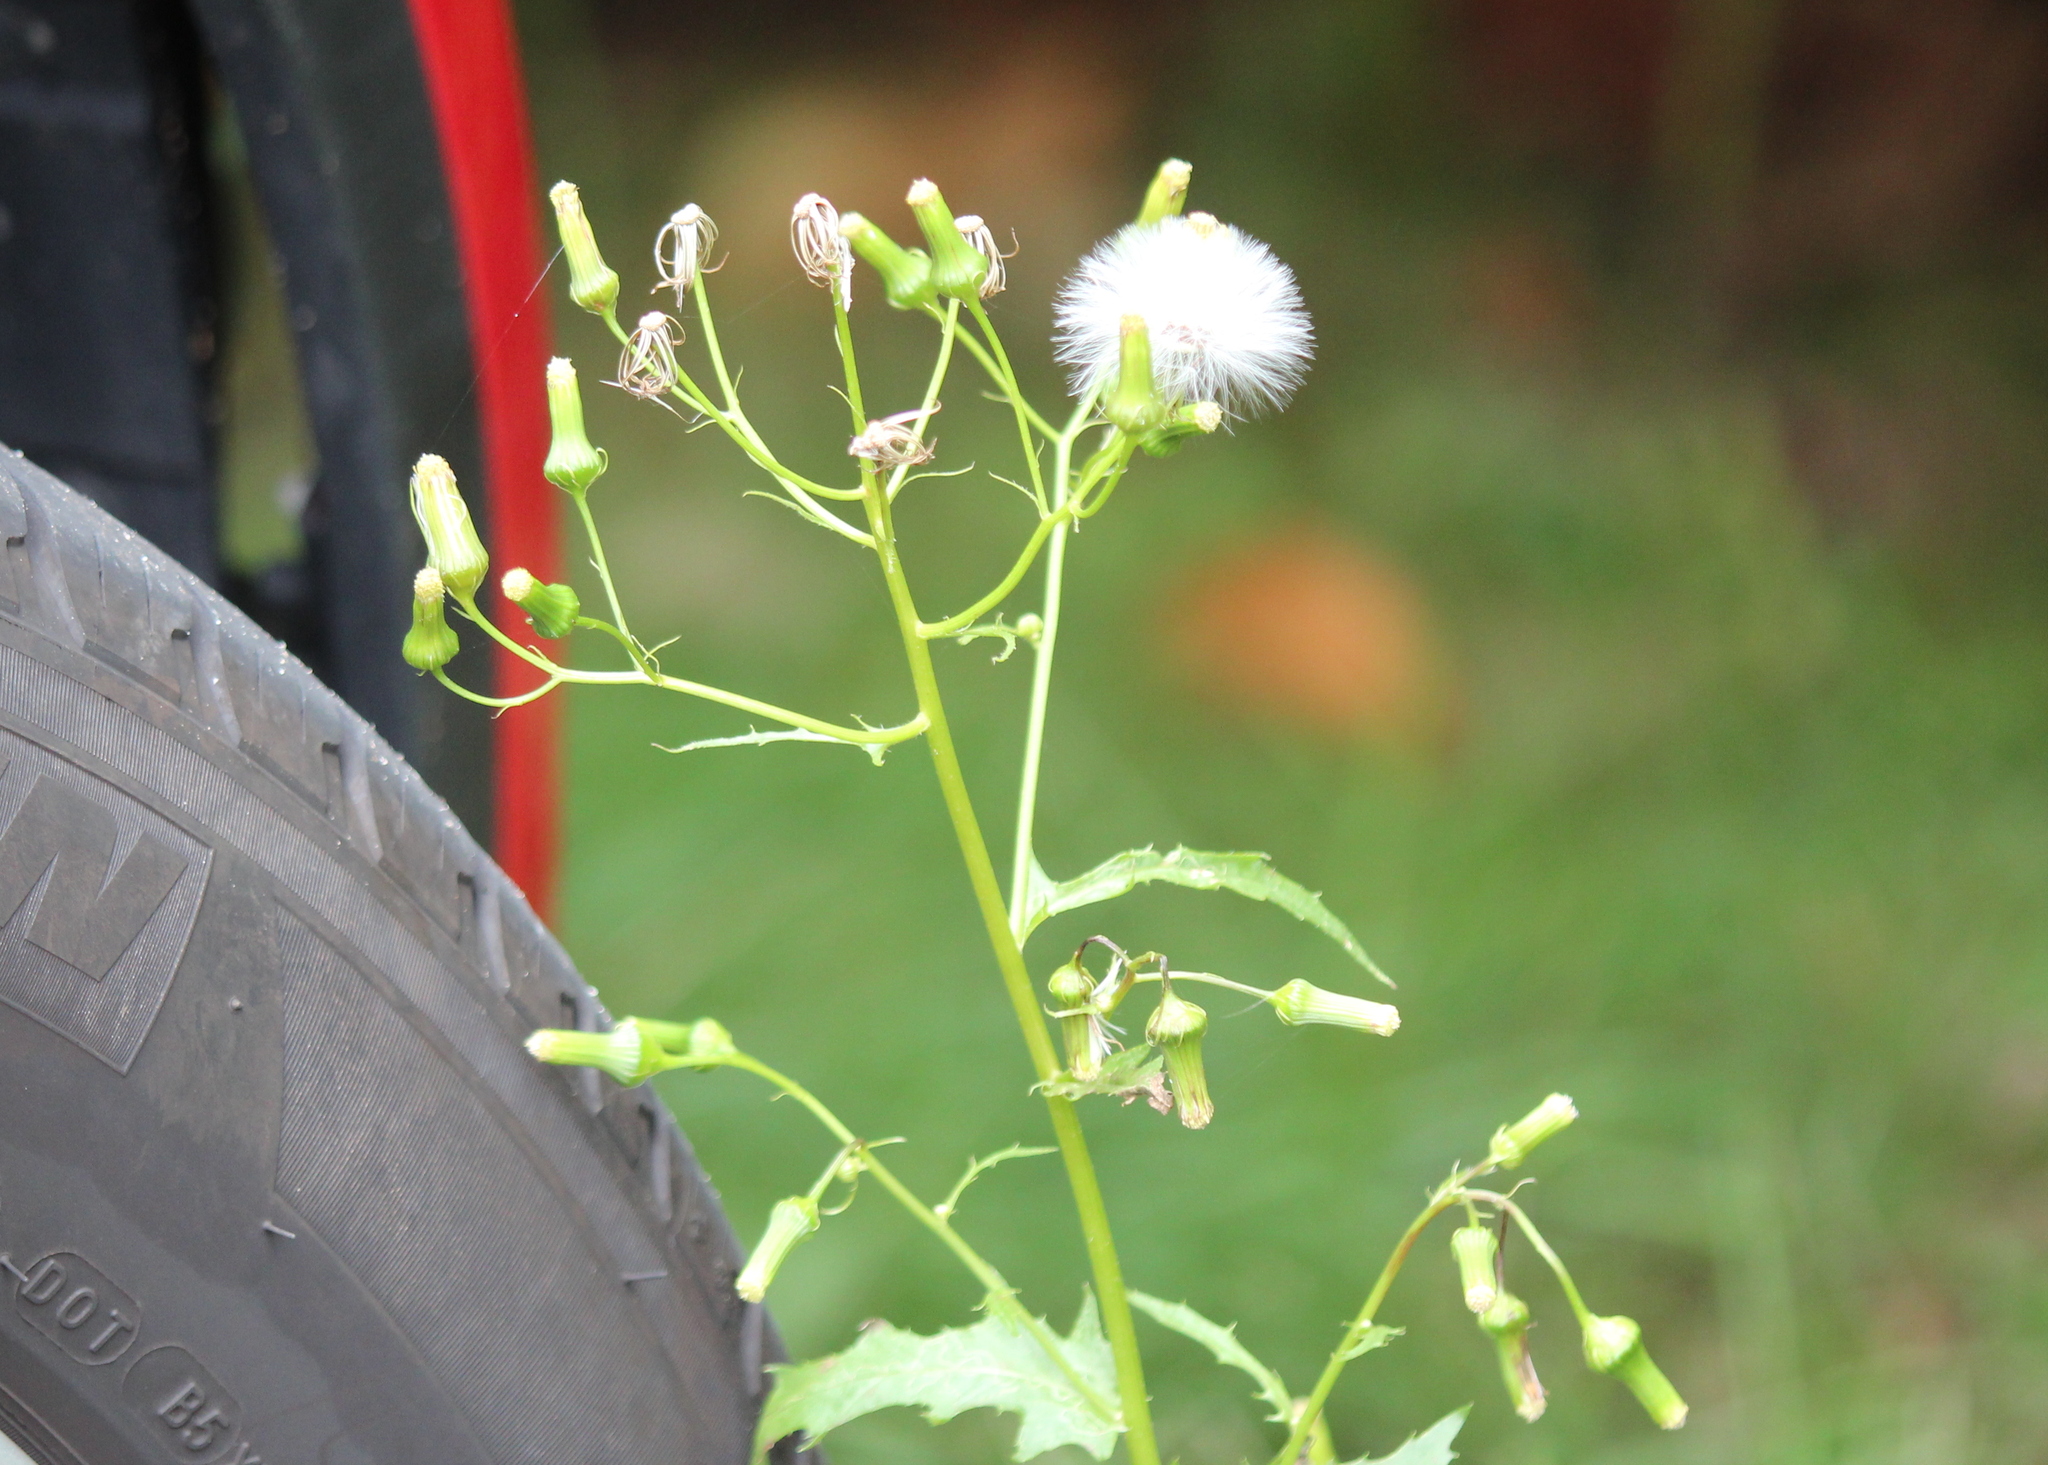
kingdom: Plantae
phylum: Tracheophyta
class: Magnoliopsida
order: Asterales
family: Asteraceae
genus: Erechtites
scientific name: Erechtites hieraciifolius
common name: American burnweed
